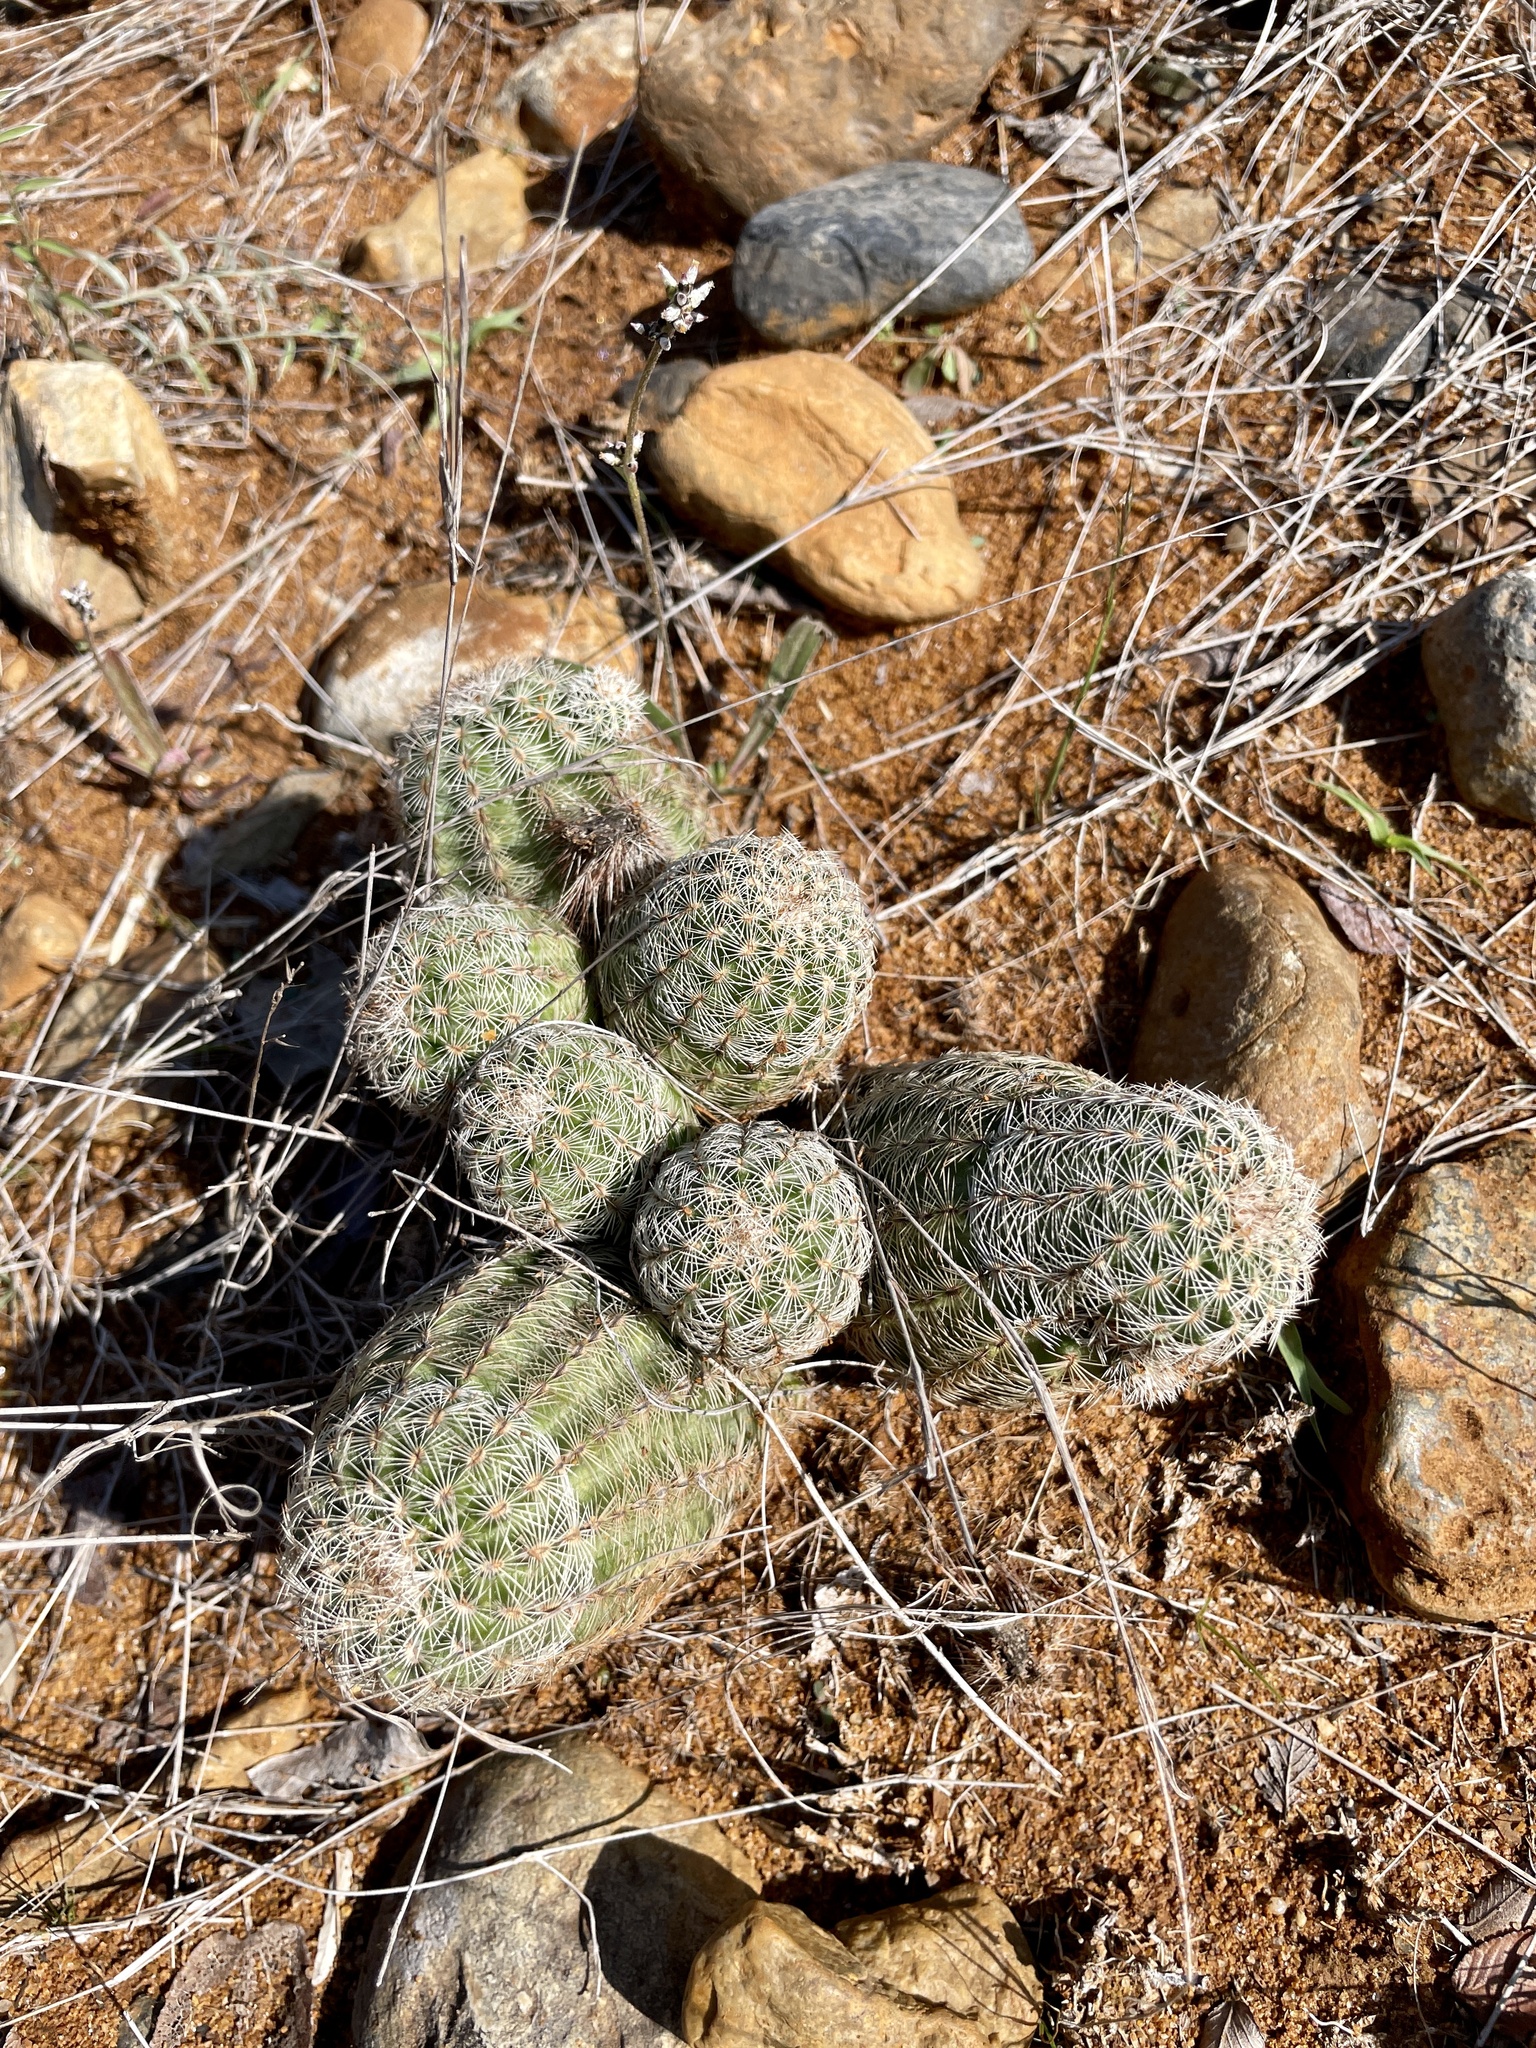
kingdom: Plantae
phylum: Tracheophyta
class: Magnoliopsida
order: Caryophyllales
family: Cactaceae
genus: Echinocereus
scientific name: Echinocereus reichenbachii
